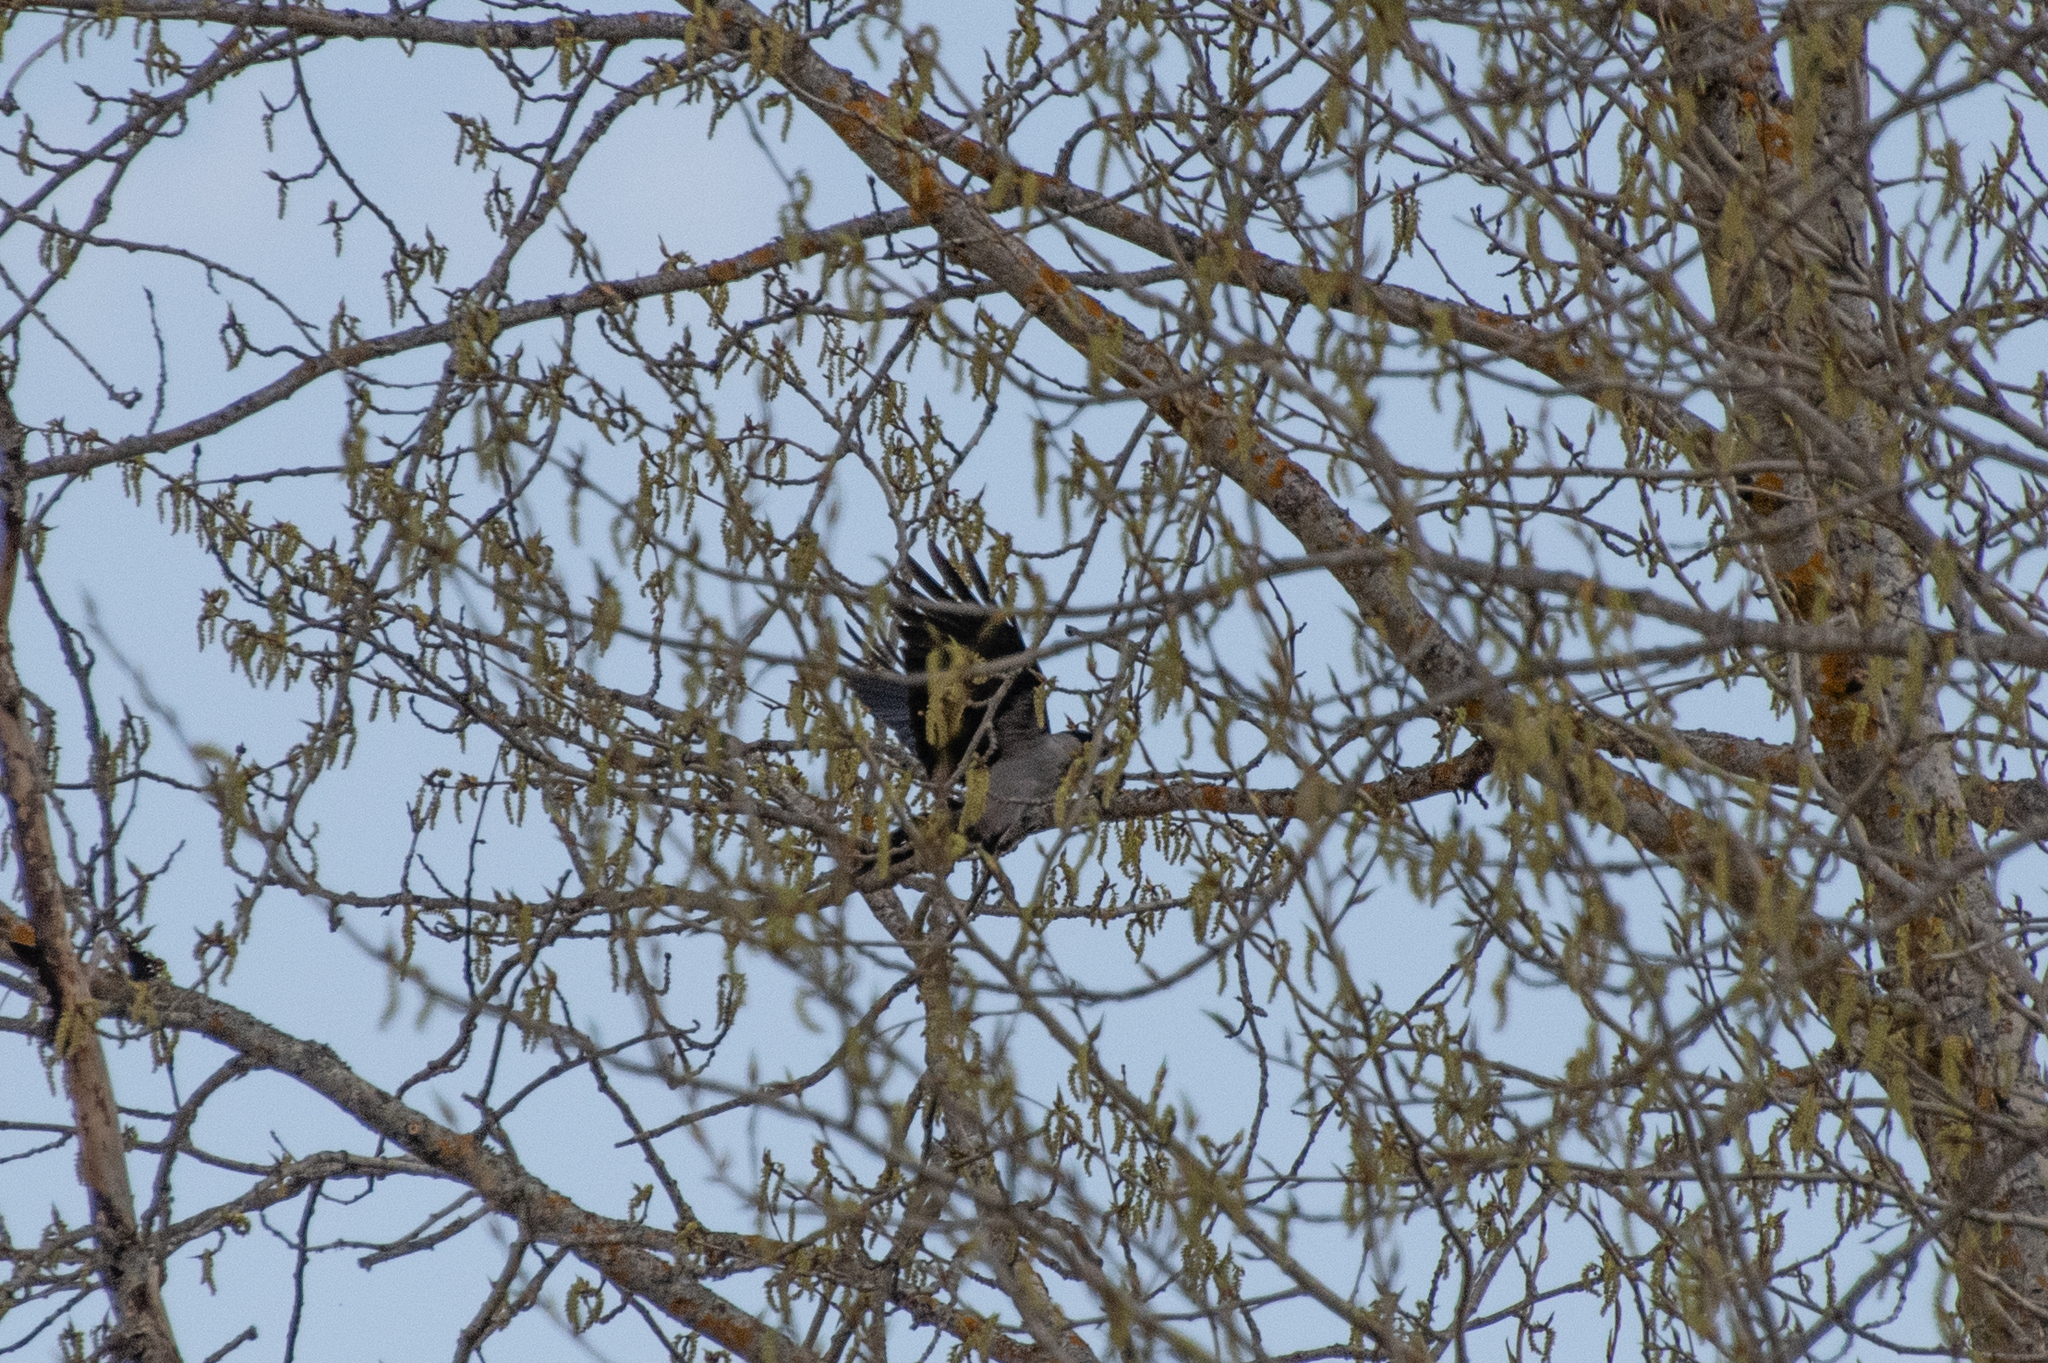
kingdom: Animalia
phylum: Chordata
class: Aves
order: Passeriformes
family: Corvidae
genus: Corvus
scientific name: Corvus cornix
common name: Hooded crow
